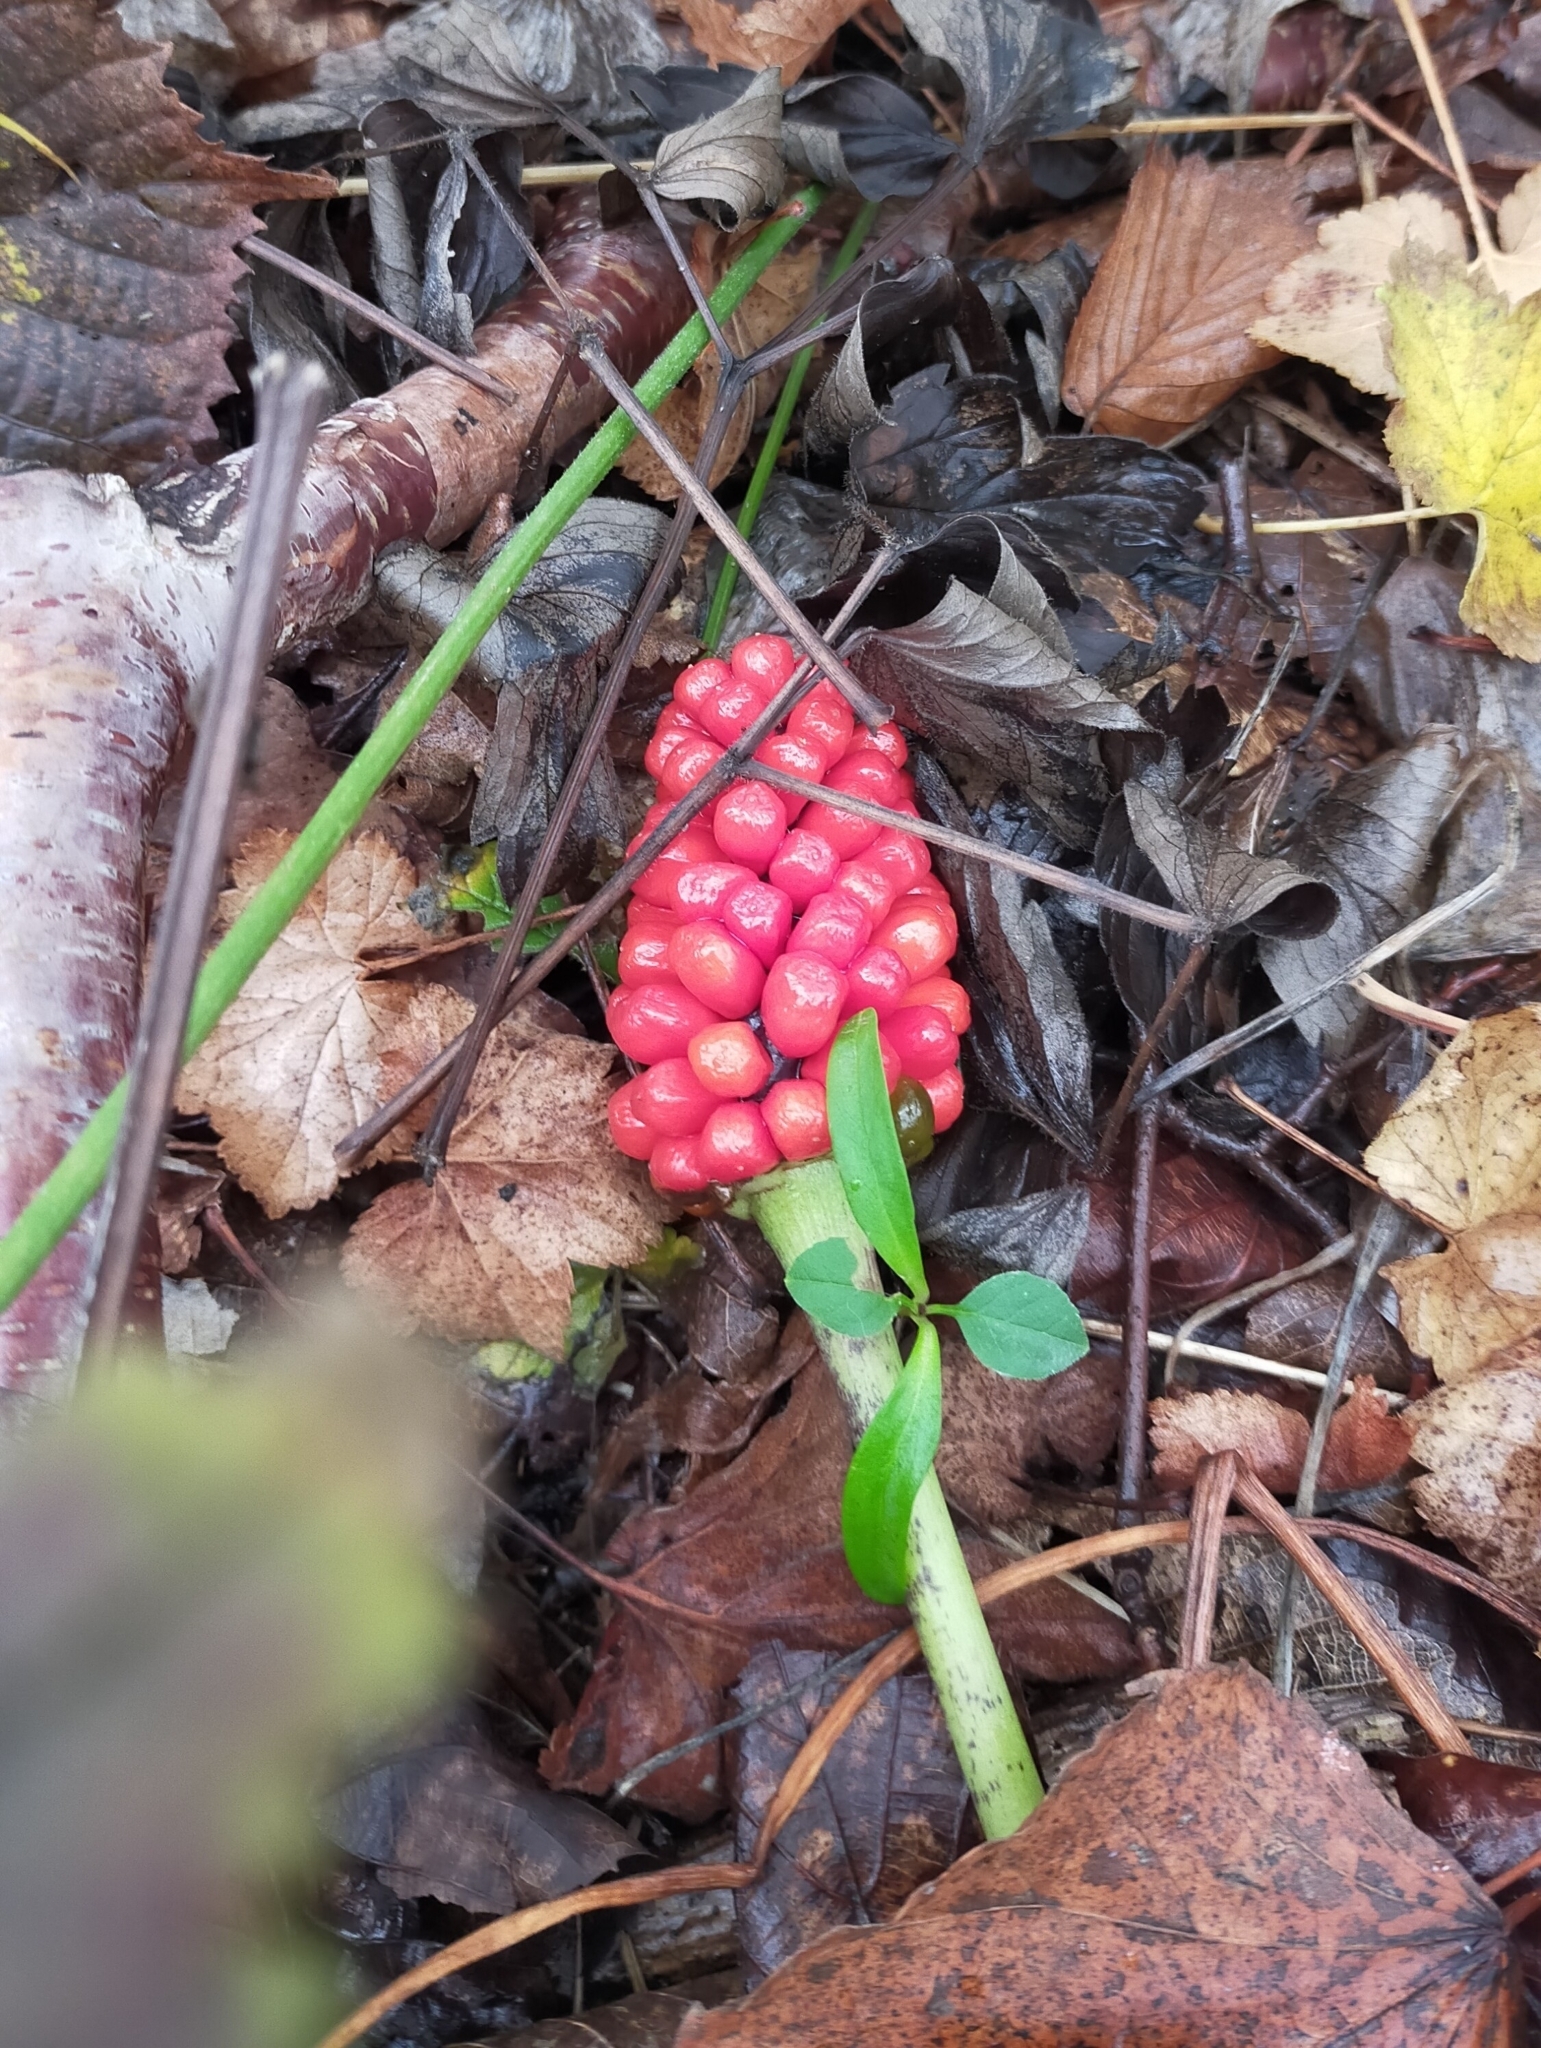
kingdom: Plantae
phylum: Tracheophyta
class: Liliopsida
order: Alismatales
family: Araceae
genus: Arisaema
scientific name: Arisaema amurense
